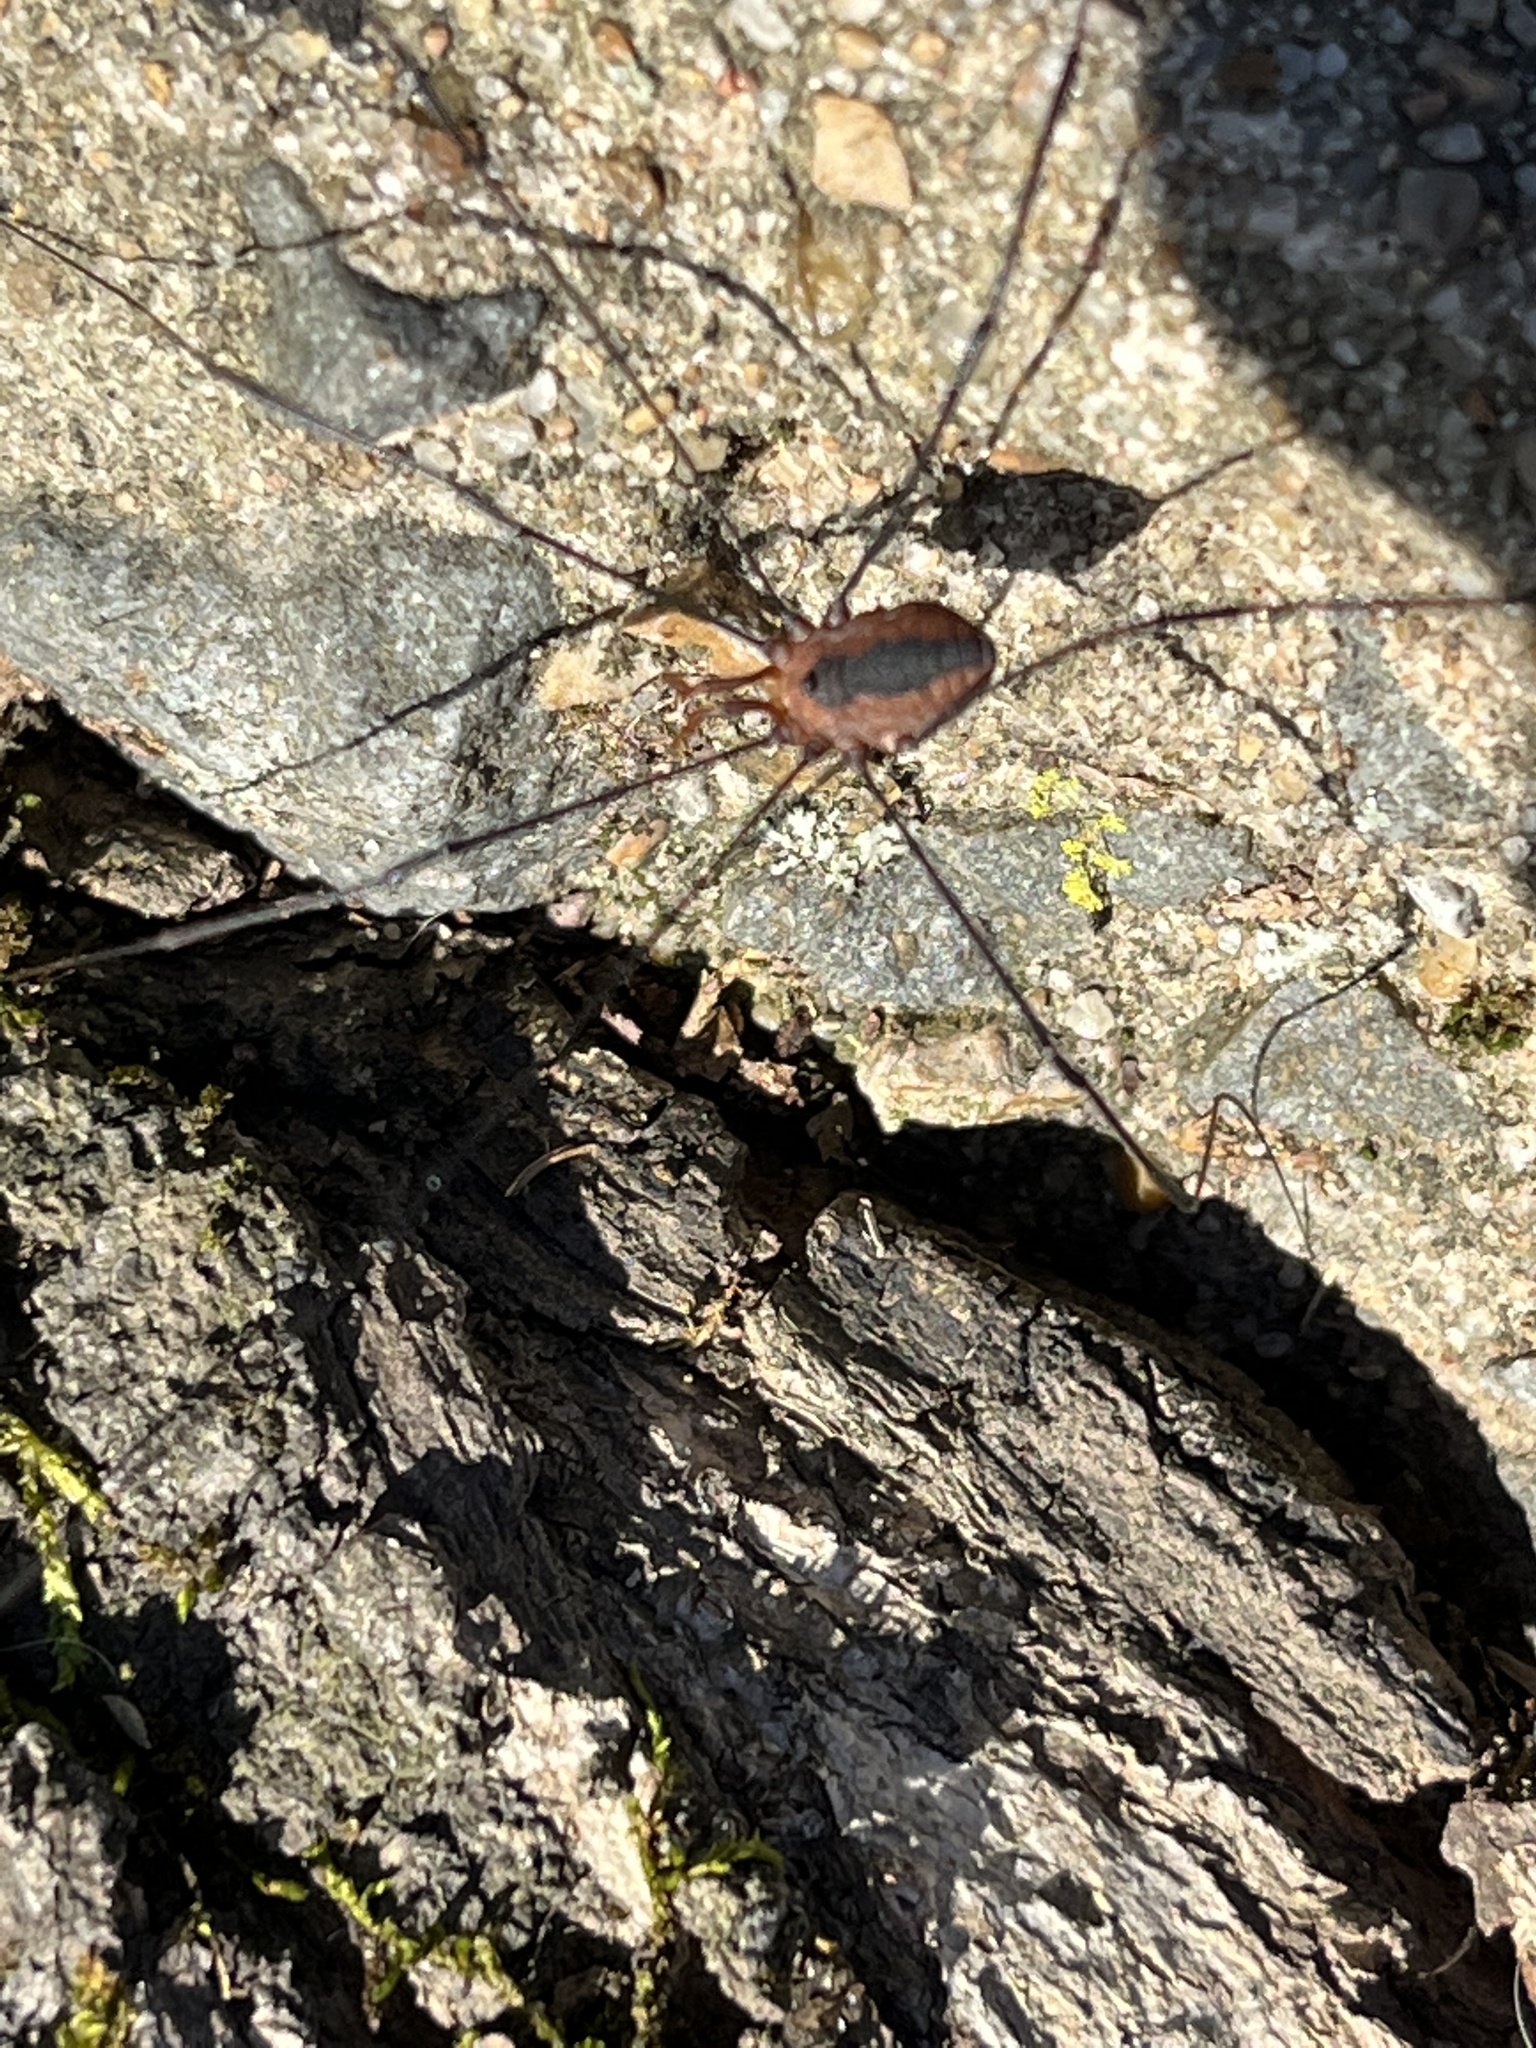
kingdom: Animalia
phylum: Arthropoda
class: Arachnida
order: Opiliones
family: Sclerosomatidae
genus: Leiobunum
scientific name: Leiobunum vittatum
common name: Eastern harvestman
